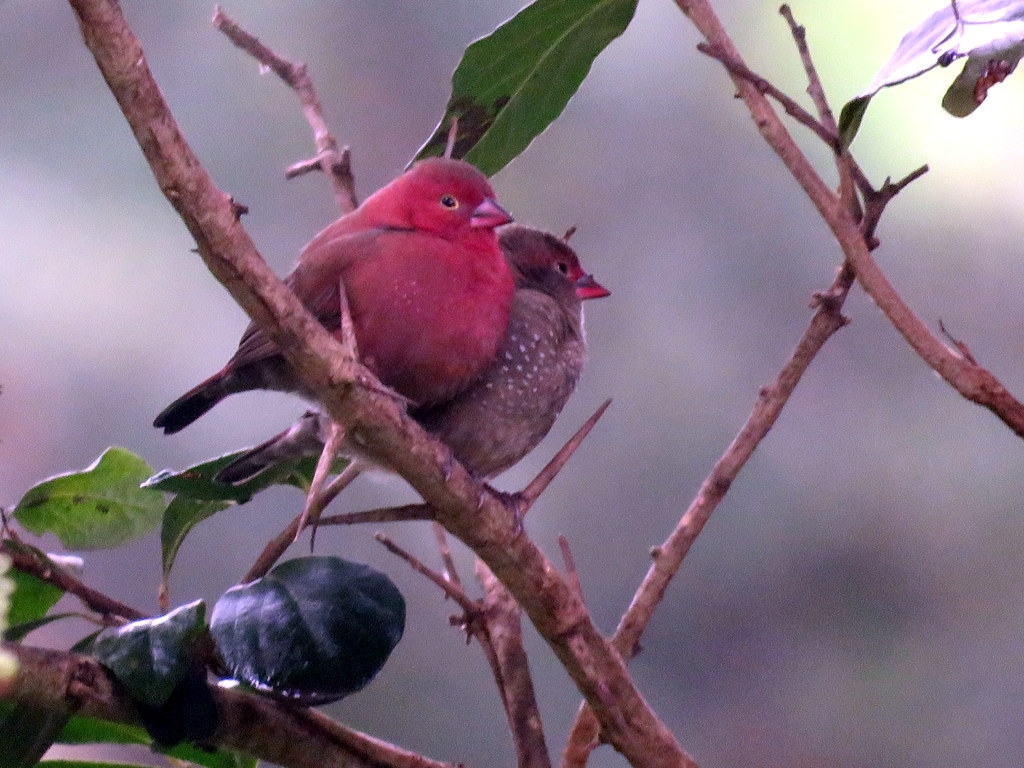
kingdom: Animalia
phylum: Chordata
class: Aves
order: Passeriformes
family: Estrildidae
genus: Lagonosticta
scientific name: Lagonosticta senegala
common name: Red-billed firefinch
